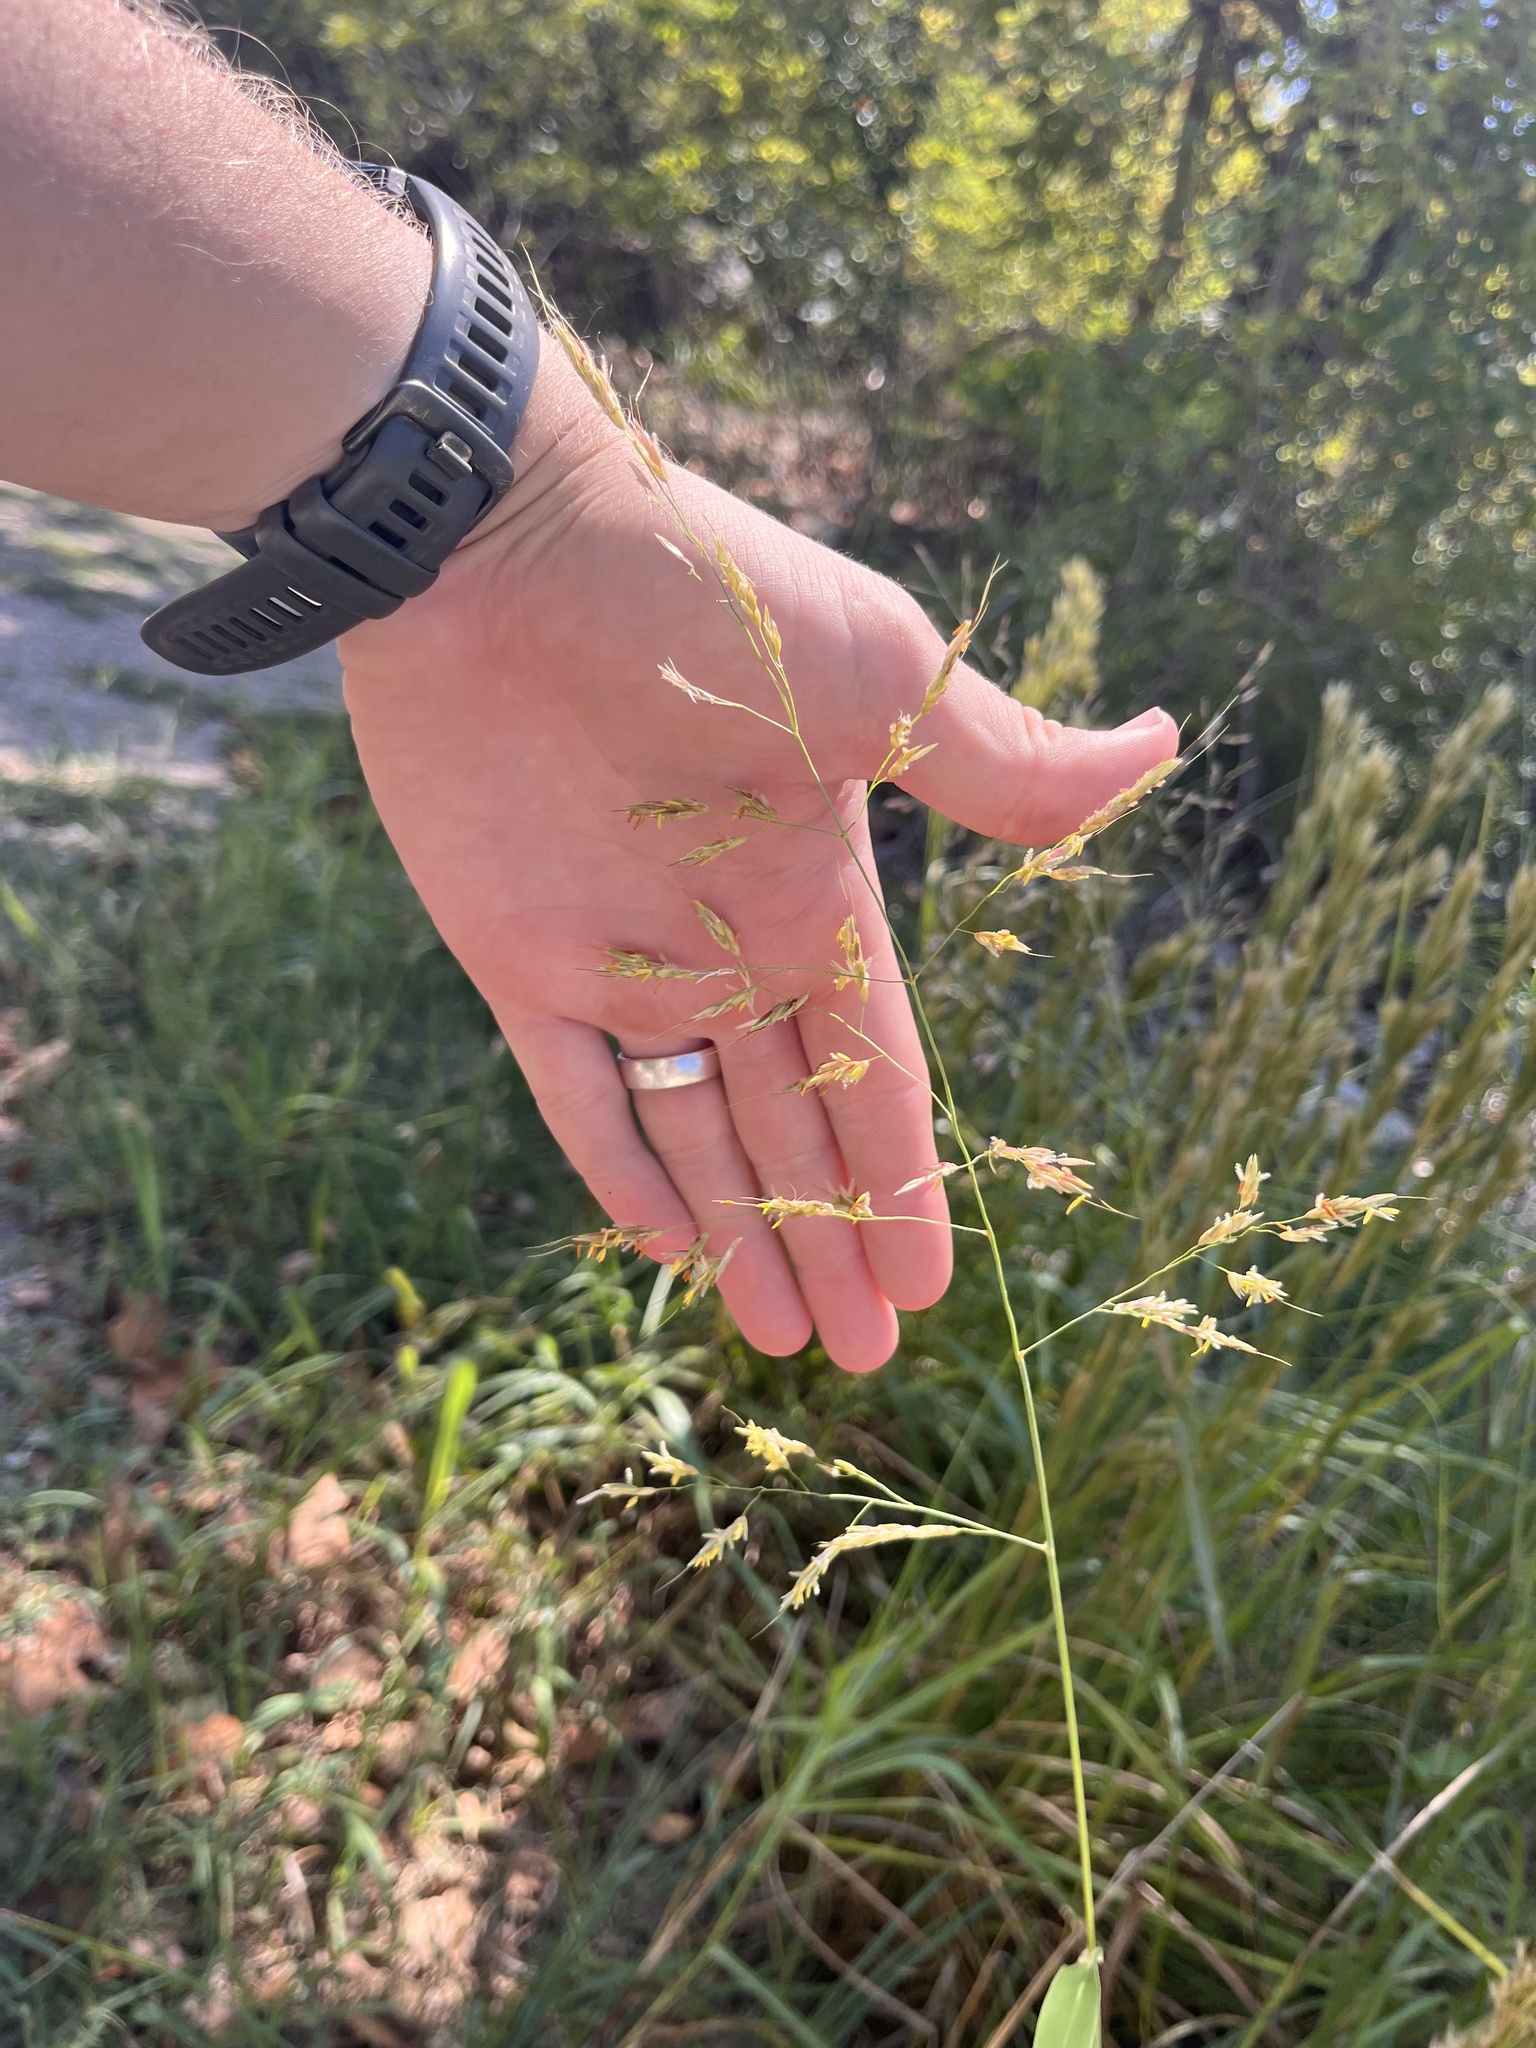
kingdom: Plantae
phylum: Tracheophyta
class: Liliopsida
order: Poales
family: Poaceae
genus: Sorghum
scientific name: Sorghum halepense
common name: Johnson-grass
